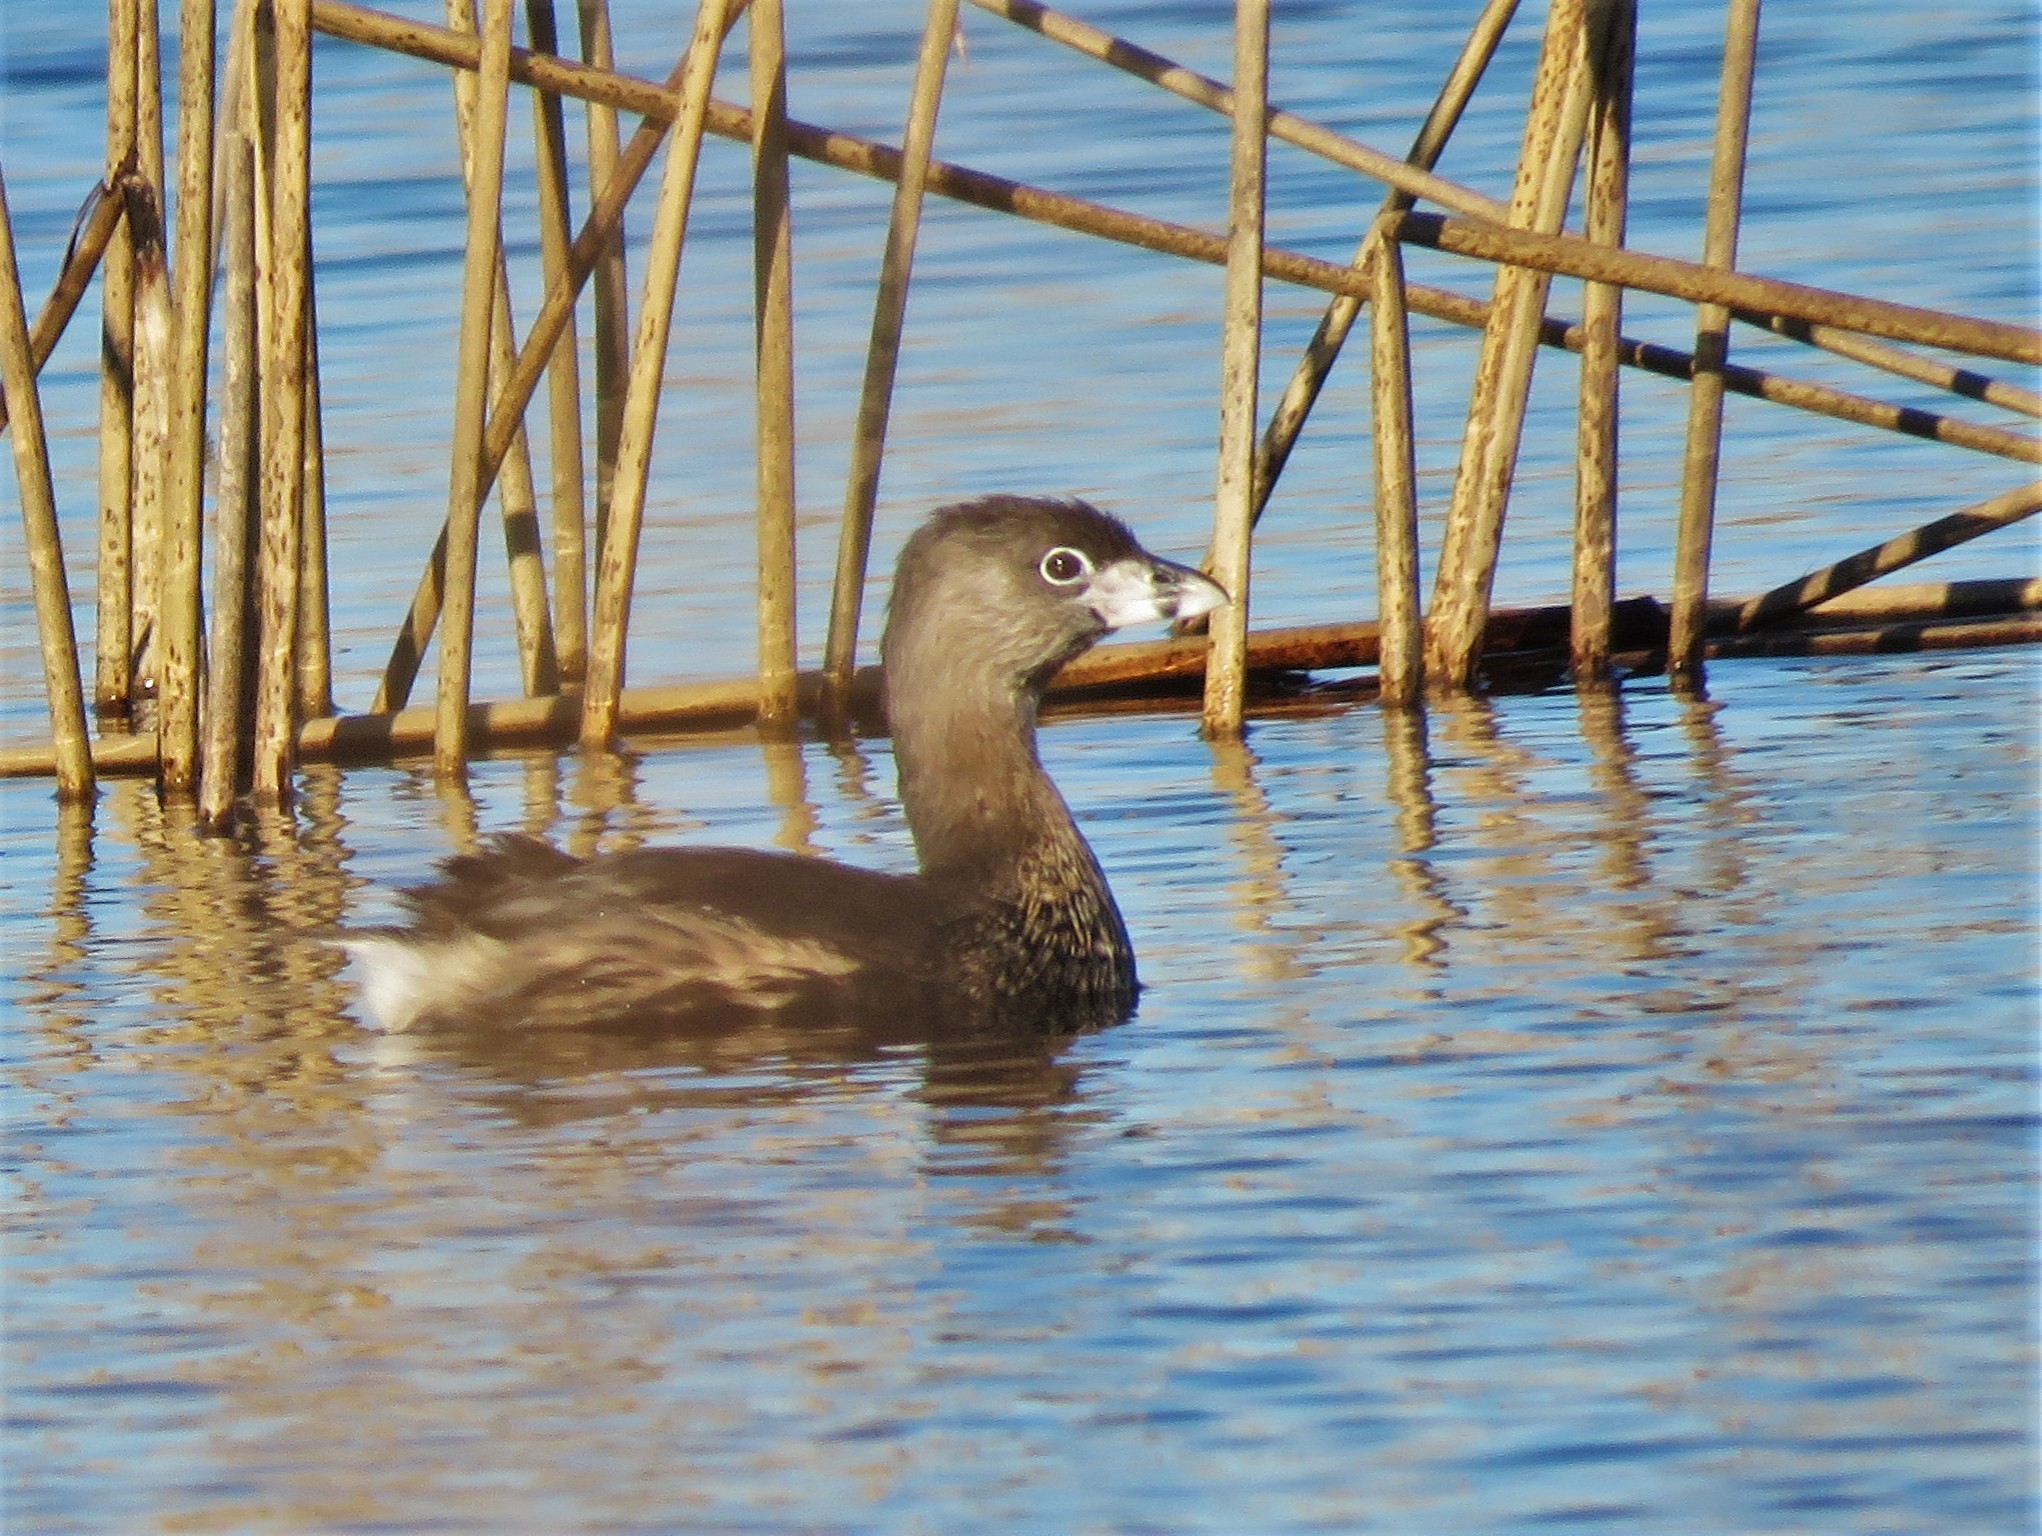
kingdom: Animalia
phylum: Chordata
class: Aves
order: Podicipediformes
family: Podicipedidae
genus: Podilymbus
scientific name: Podilymbus podiceps
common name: Pied-billed grebe
